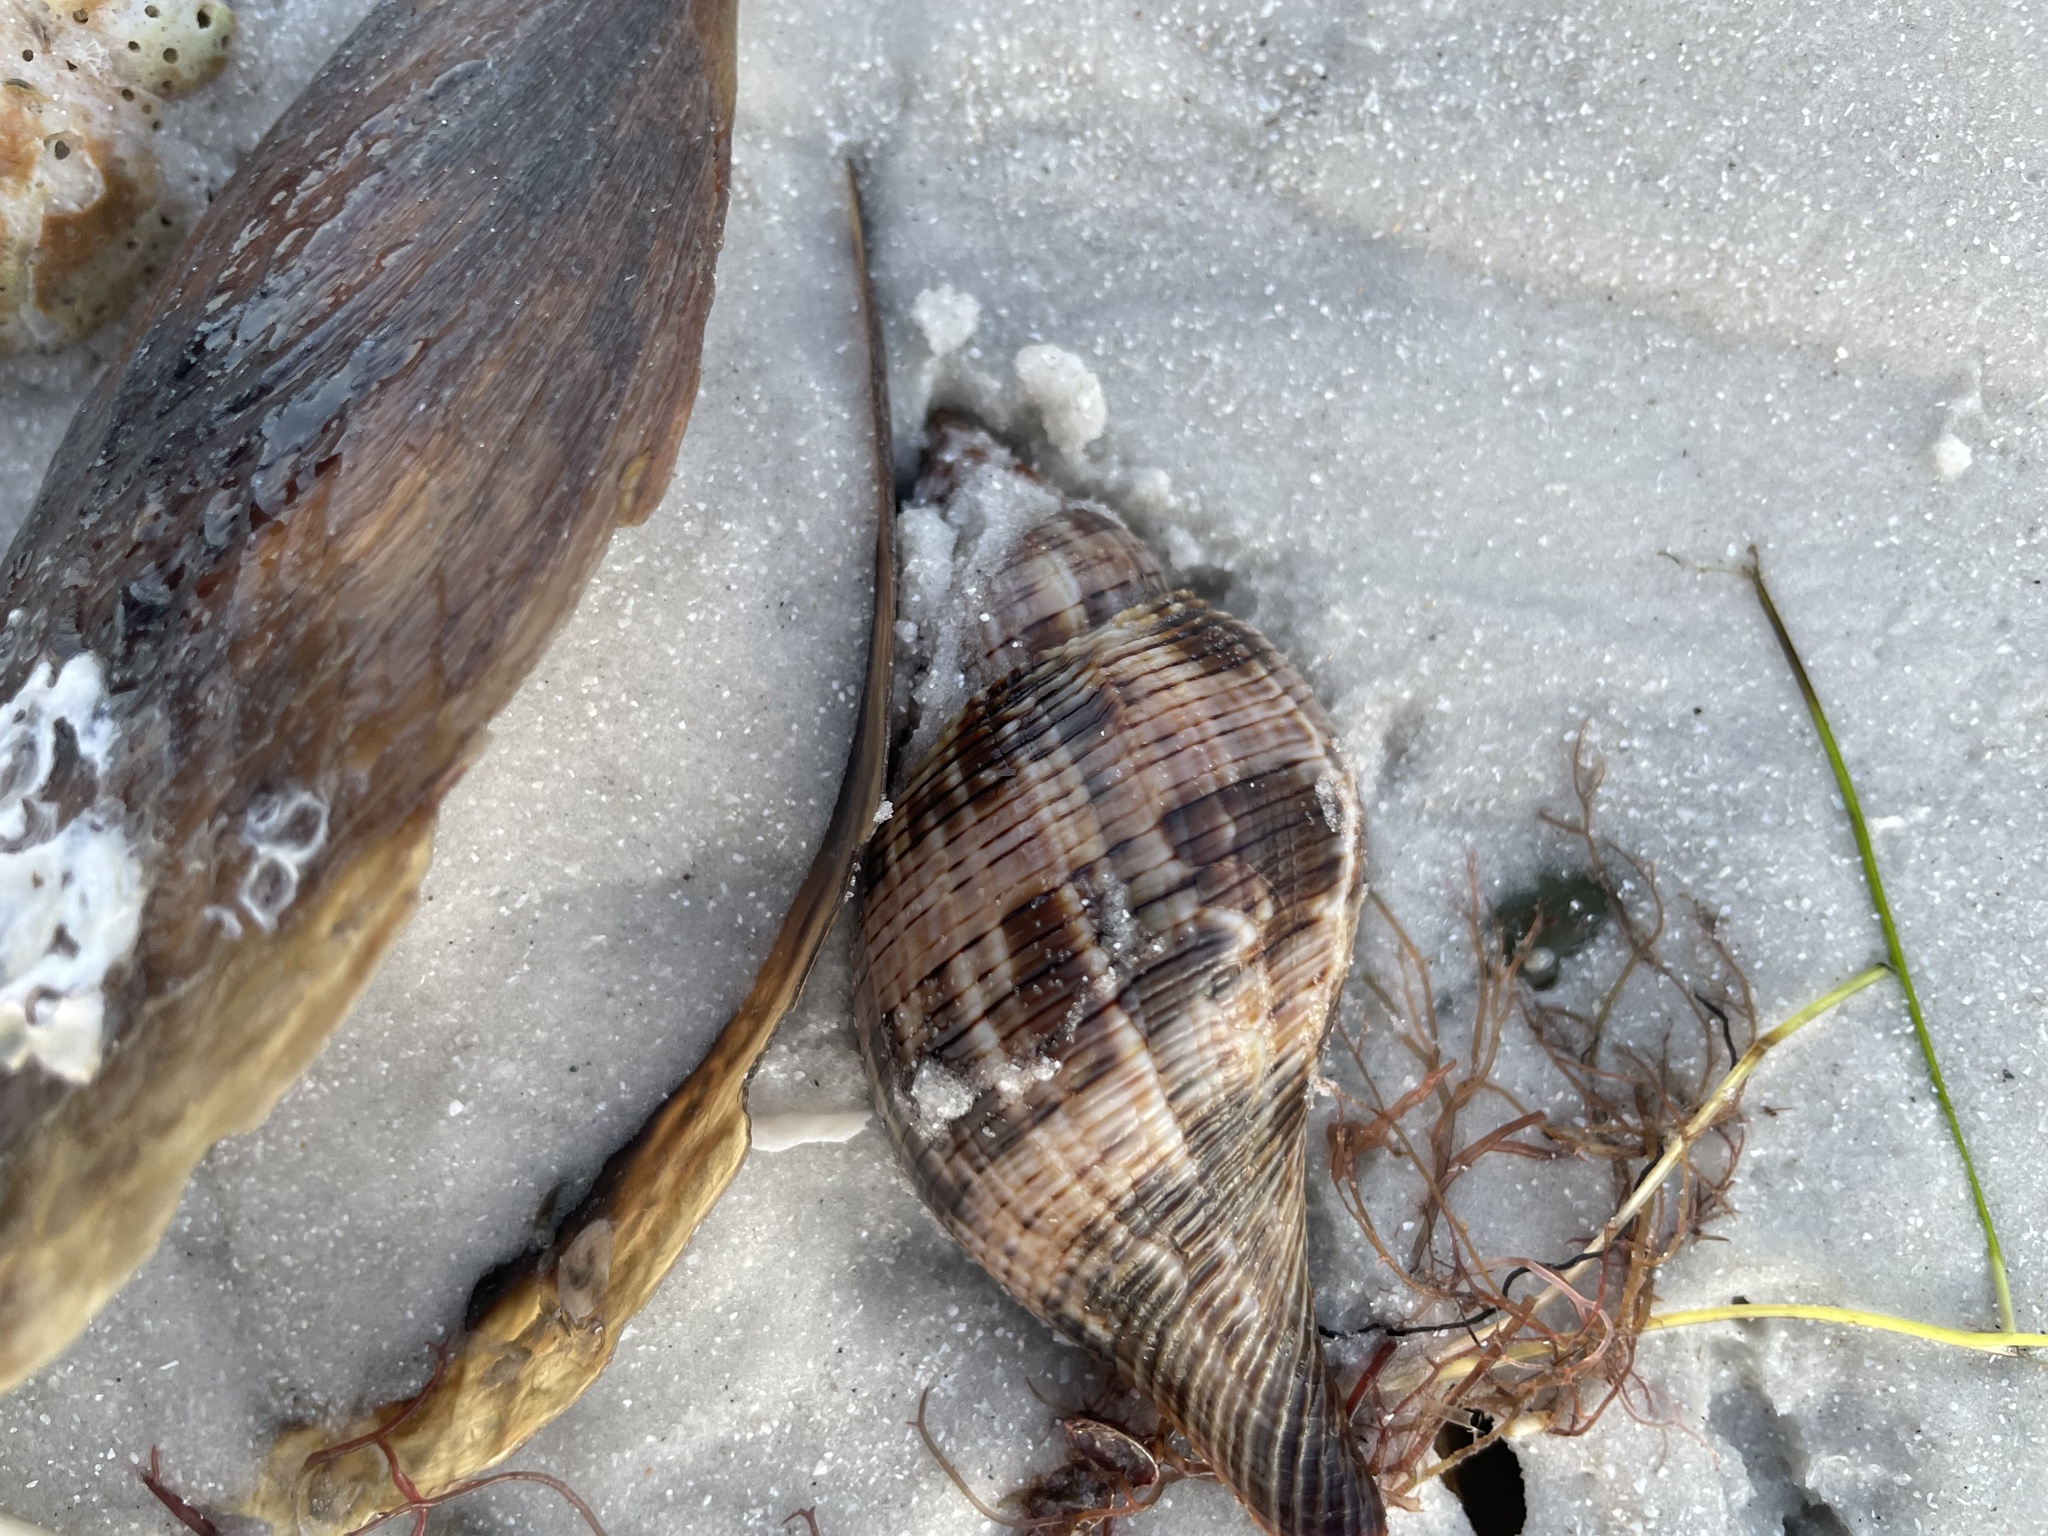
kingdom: Animalia
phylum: Mollusca
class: Gastropoda
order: Neogastropoda
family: Fasciolariidae
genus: Fasciolaria
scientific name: Fasciolaria tulipa
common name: True tulip
